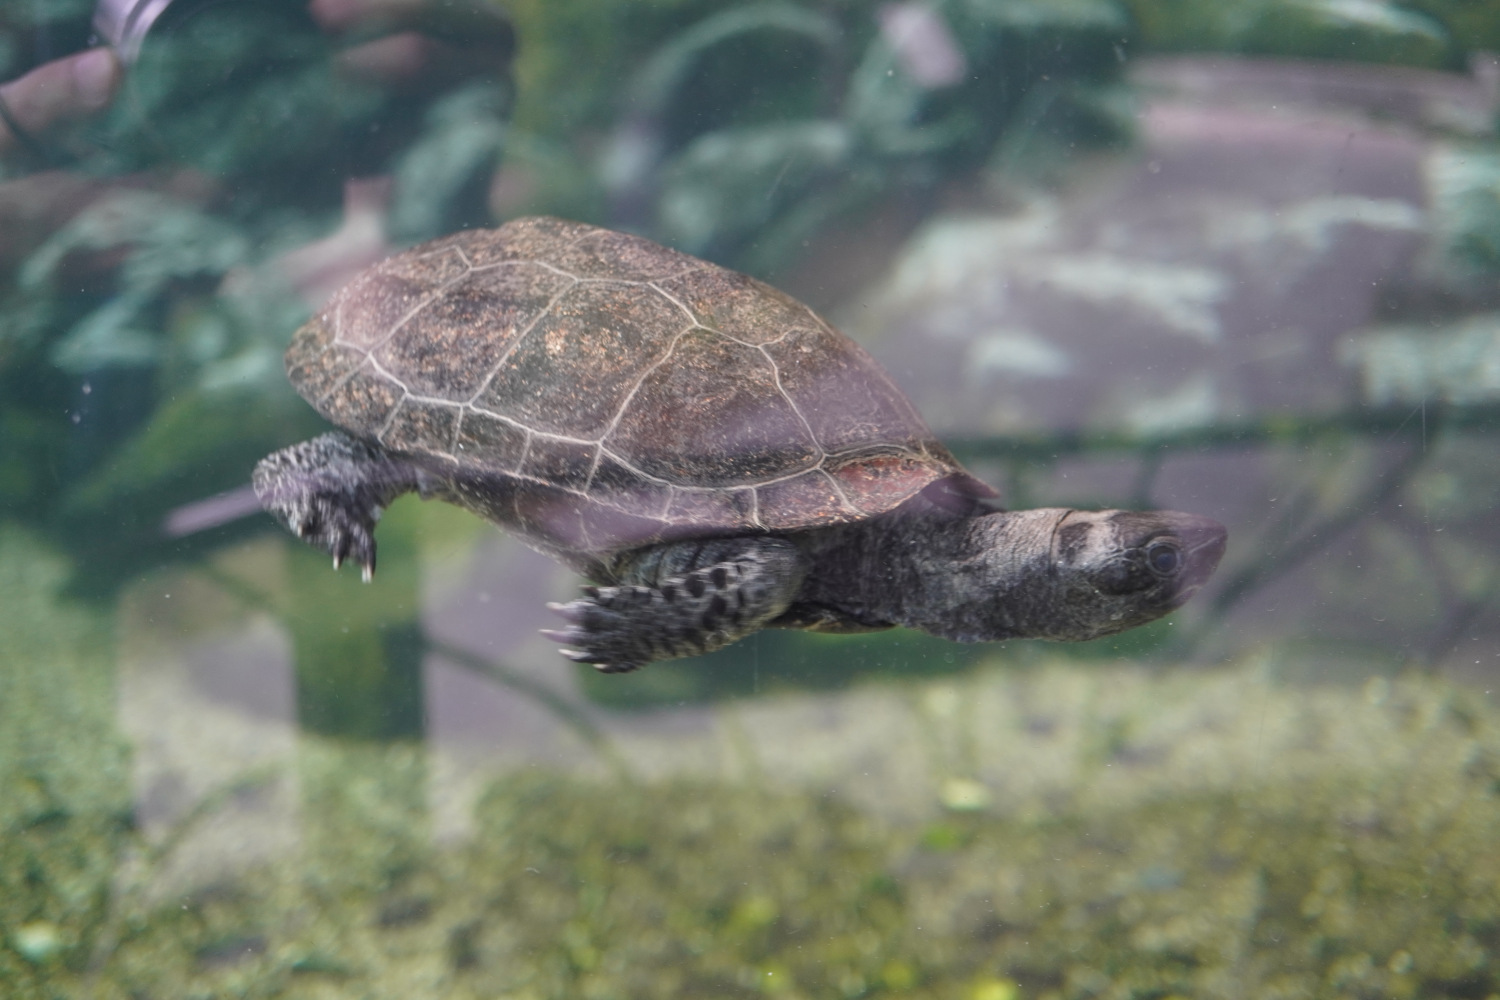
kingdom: Animalia
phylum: Chordata
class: Testudines
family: Geoemydidae
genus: Mauremys
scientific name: Mauremys reevesii
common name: Chinese pond turtle
